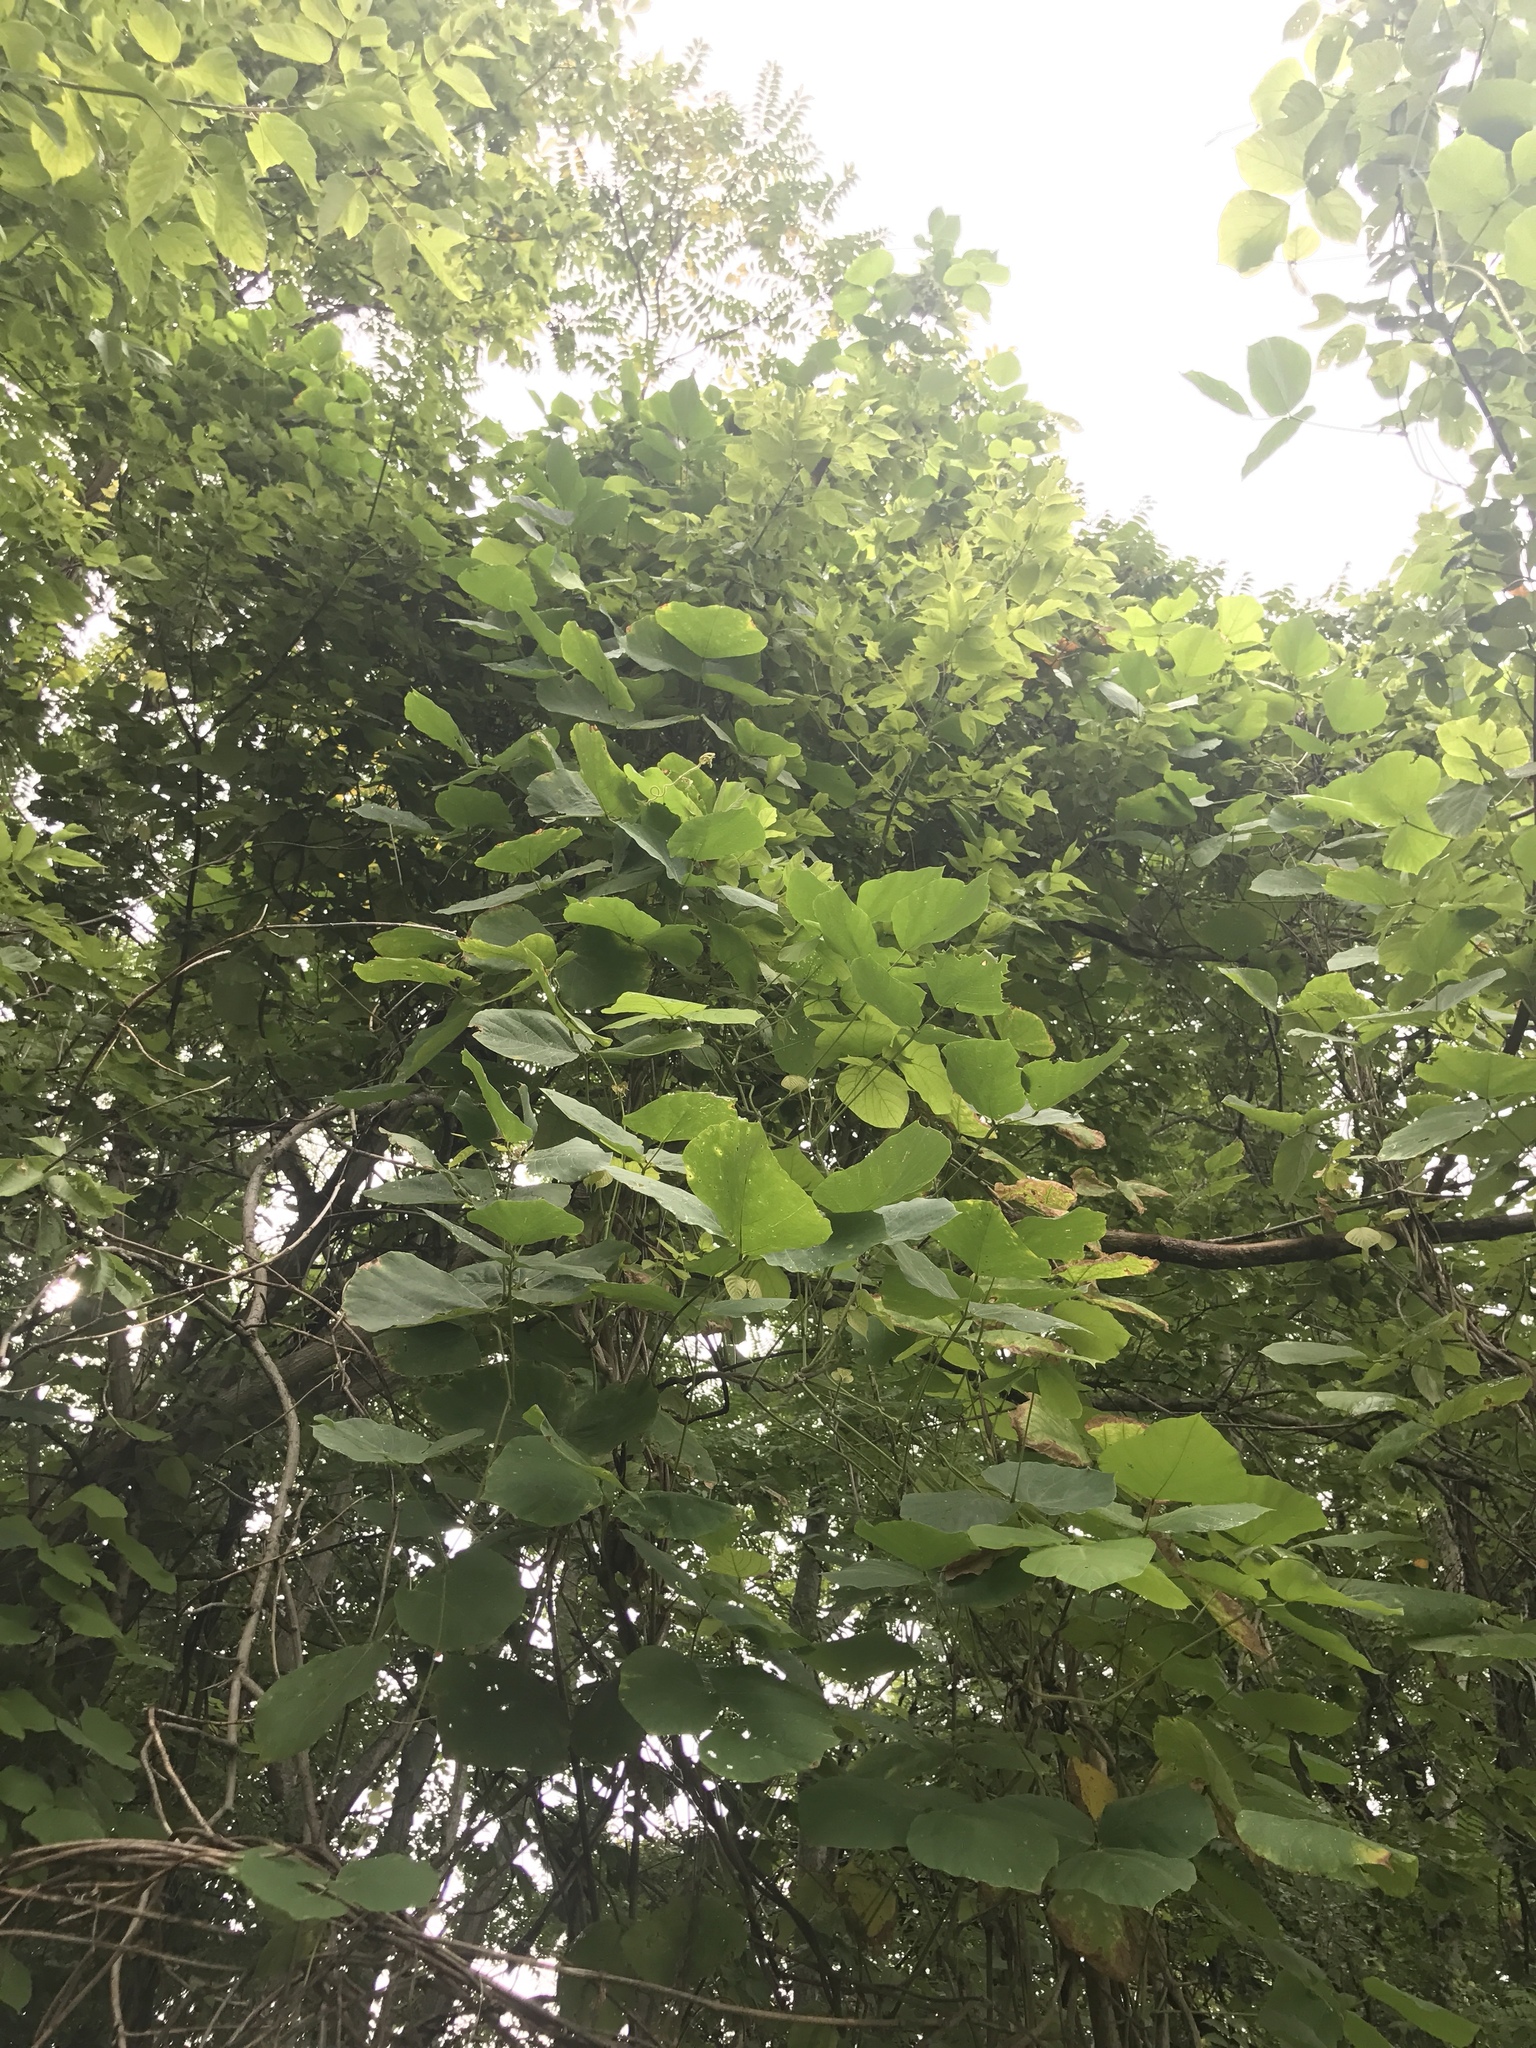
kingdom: Plantae
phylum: Tracheophyta
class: Magnoliopsida
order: Fabales
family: Fabaceae
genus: Pueraria
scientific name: Pueraria montana
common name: Kudzu
